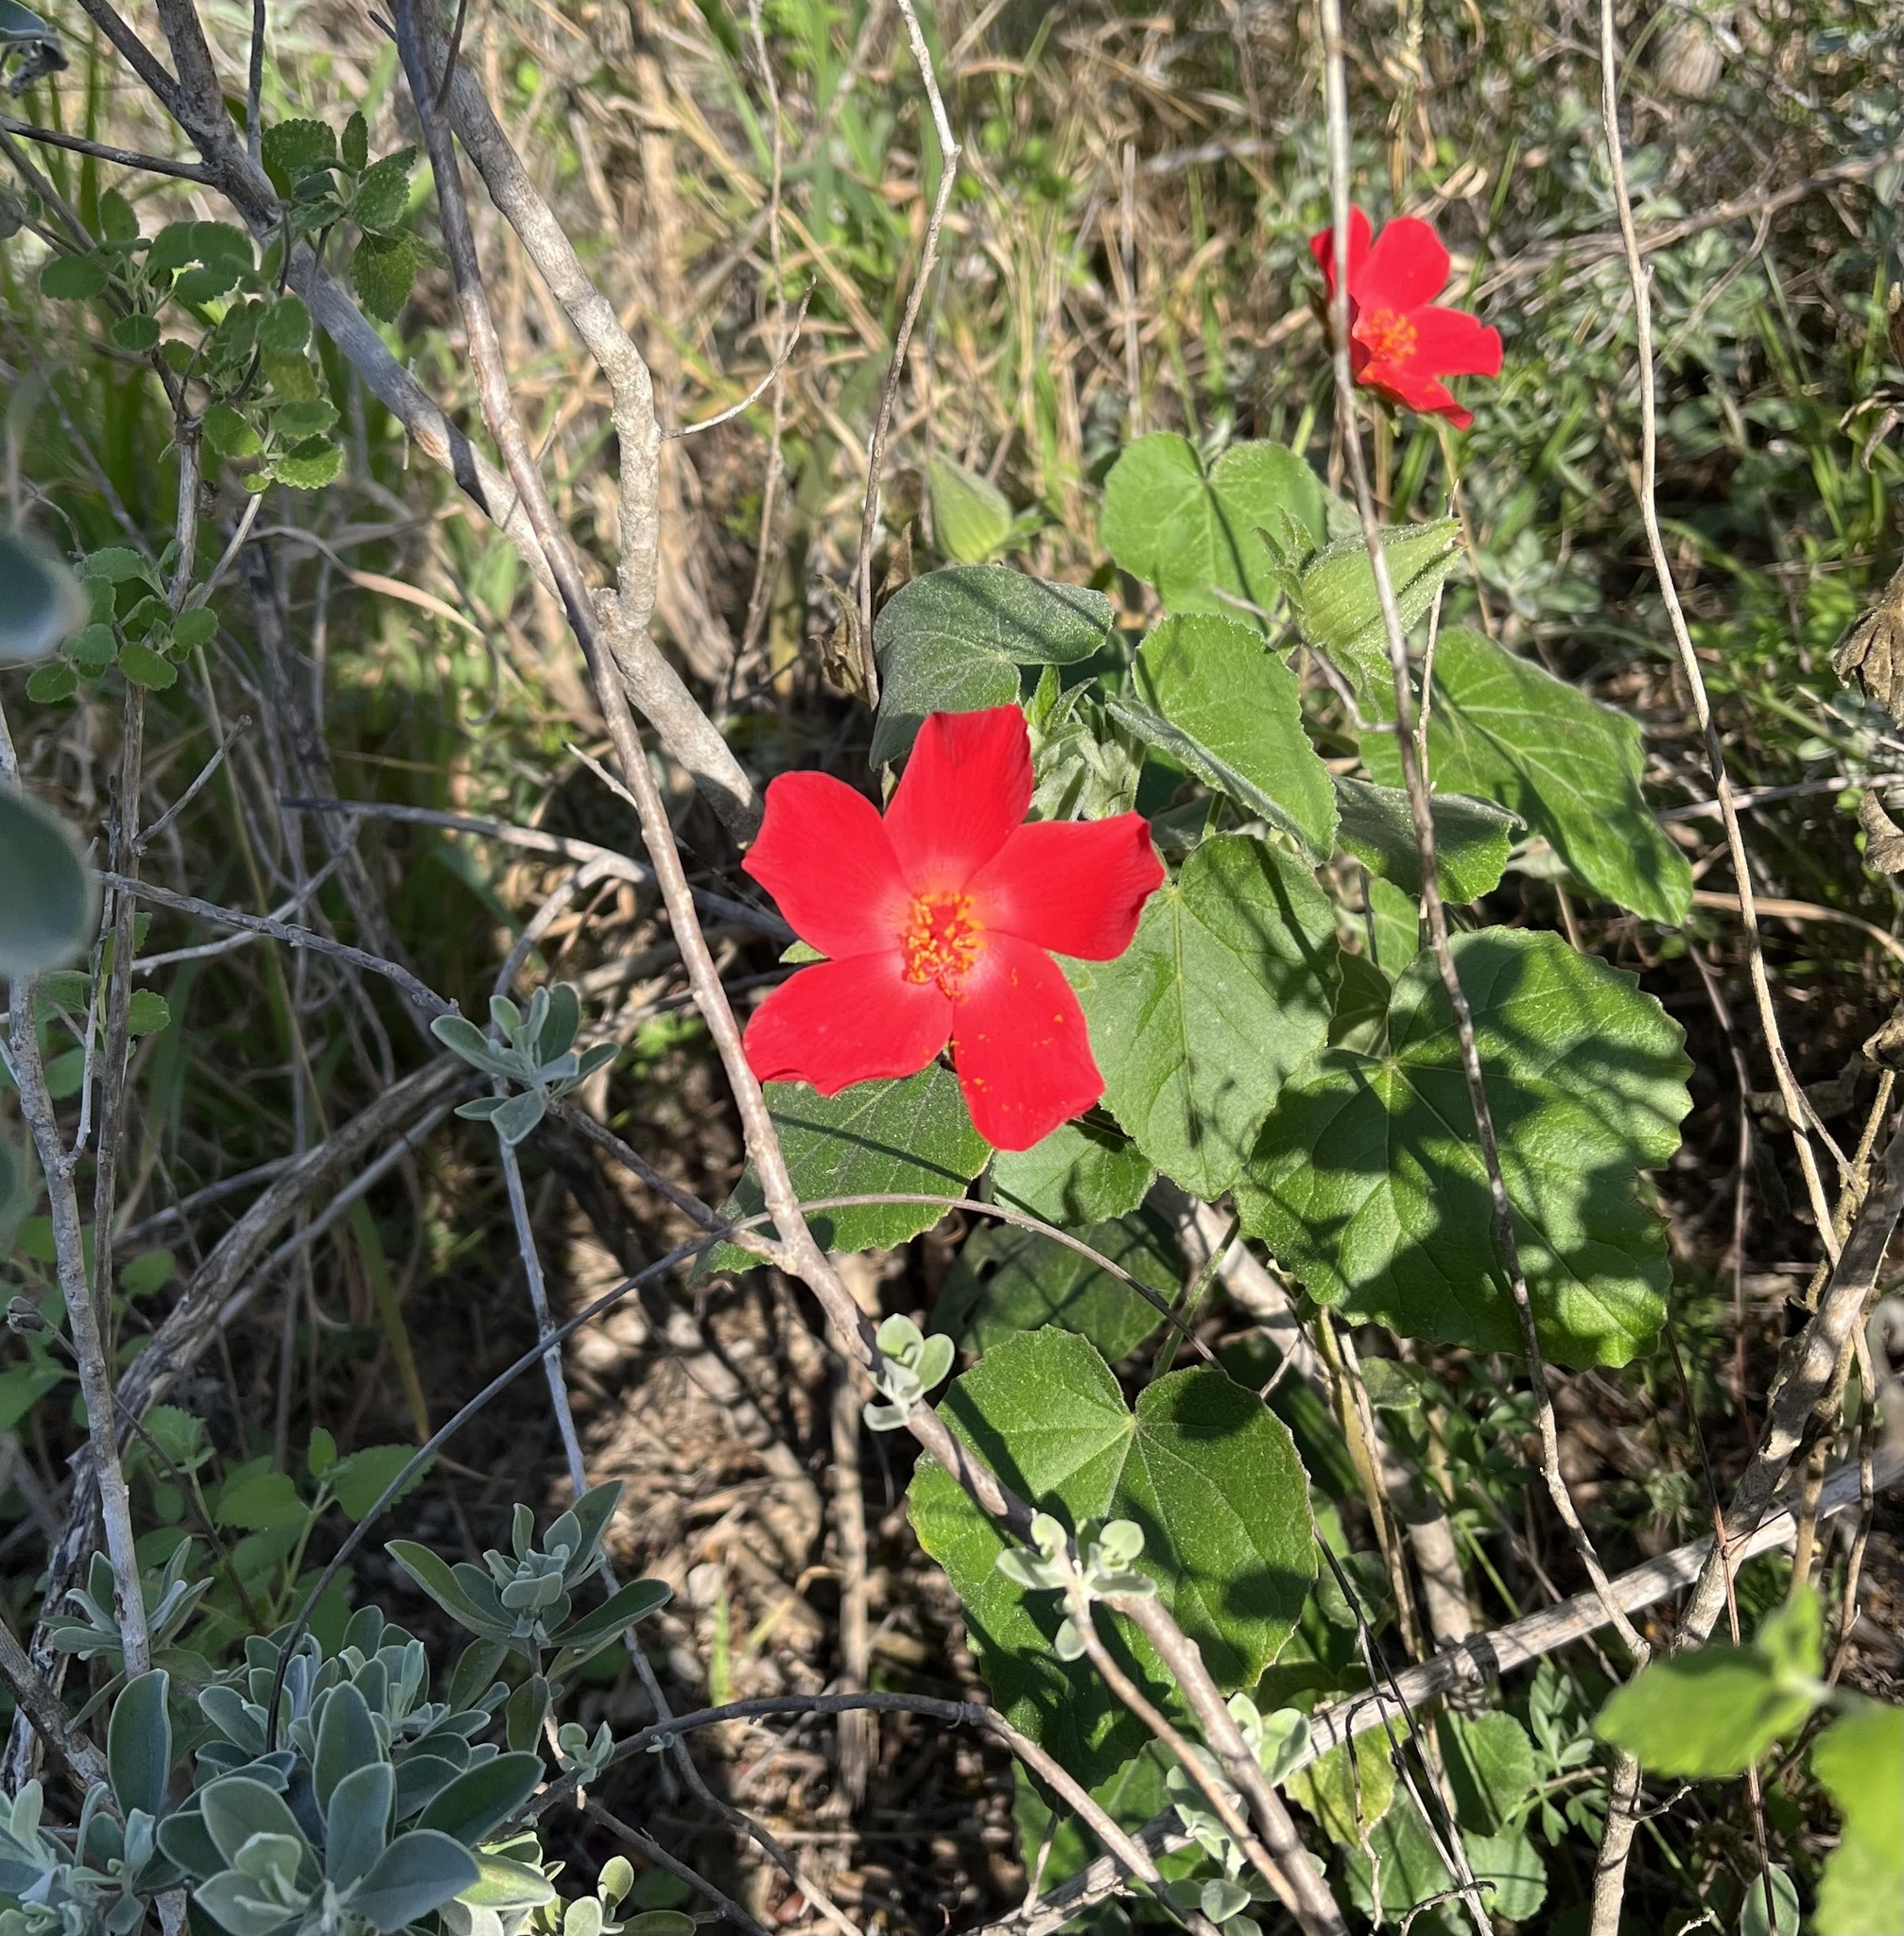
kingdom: Plantae
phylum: Tracheophyta
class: Magnoliopsida
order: Malvales
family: Malvaceae
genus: Hibiscus
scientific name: Hibiscus martianus
